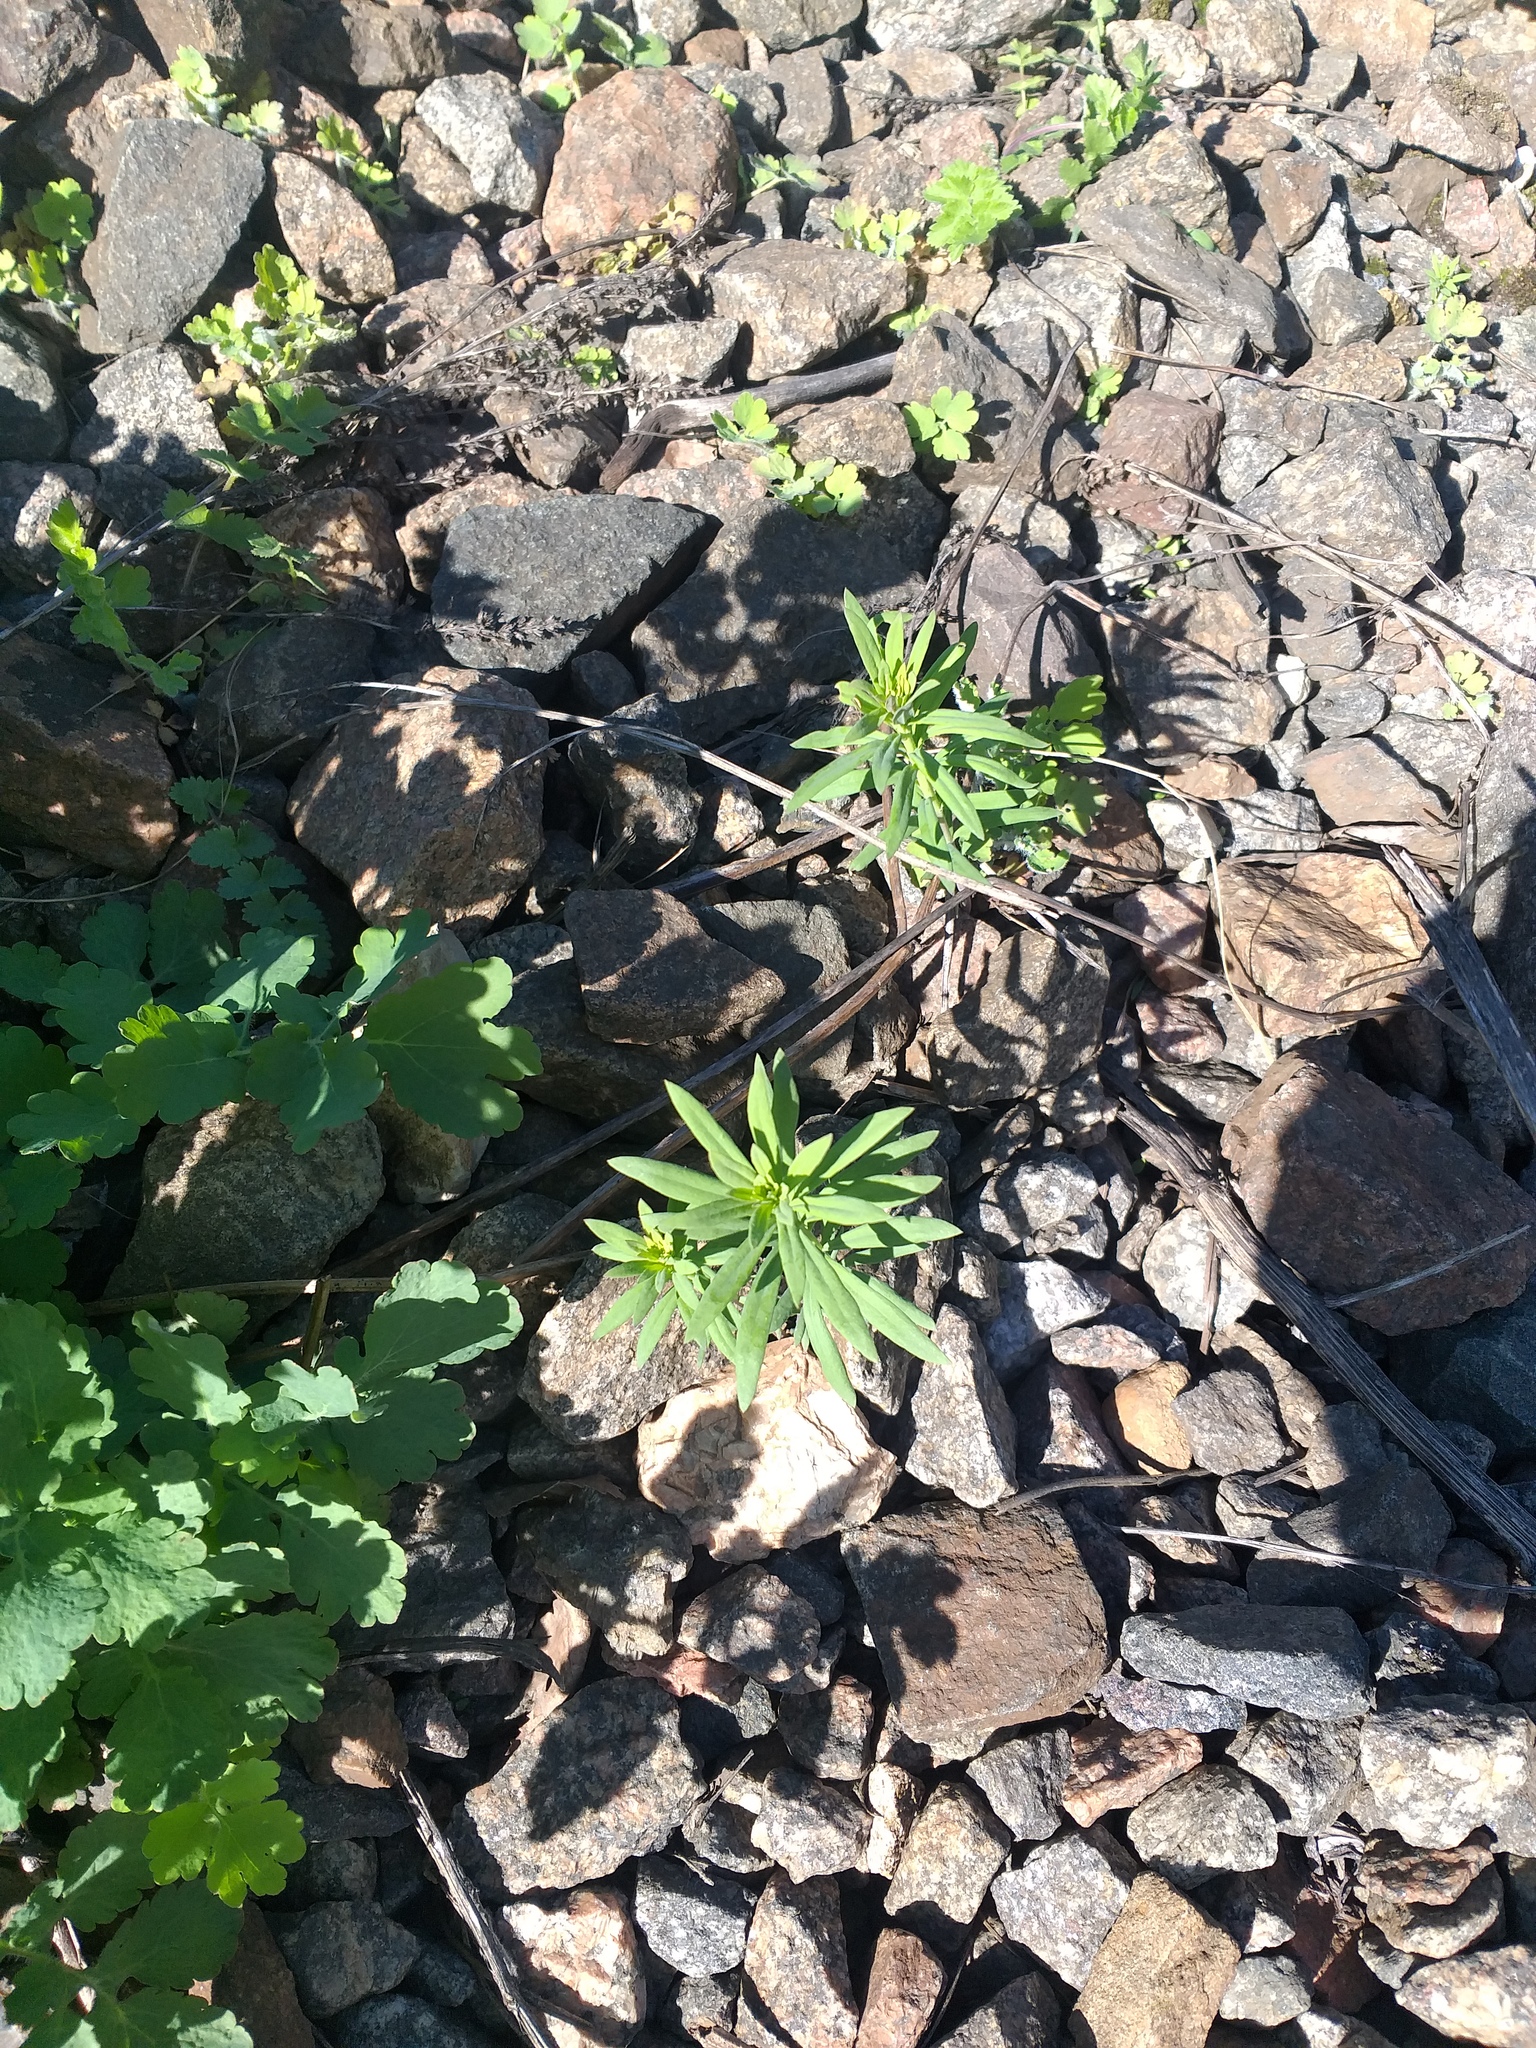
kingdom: Plantae
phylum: Tracheophyta
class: Magnoliopsida
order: Lamiales
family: Plantaginaceae
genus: Linaria
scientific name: Linaria vulgaris
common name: Butter and eggs
